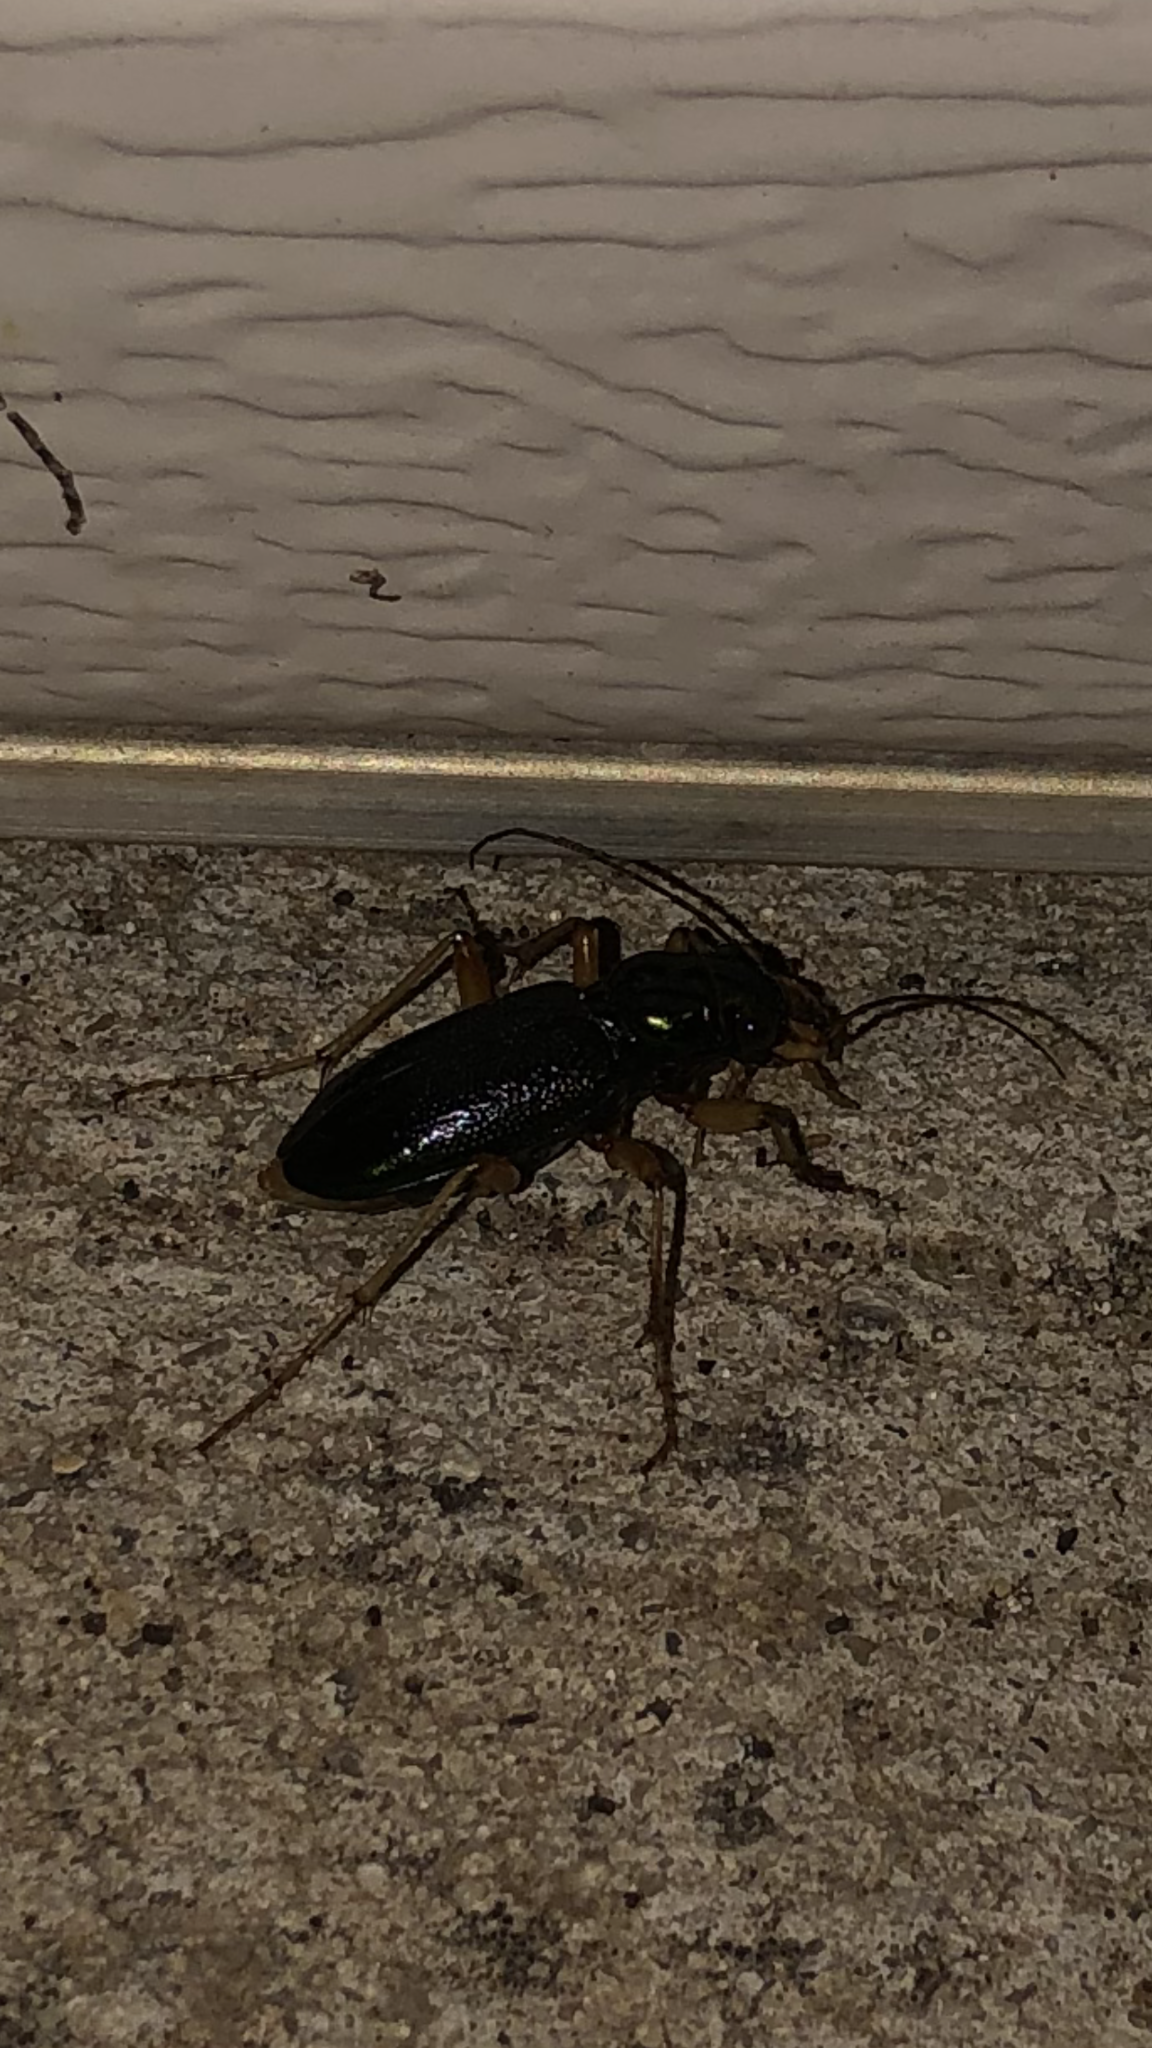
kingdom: Animalia
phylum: Arthropoda
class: Insecta
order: Coleoptera
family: Carabidae
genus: Tetracha
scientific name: Tetracha virginica
